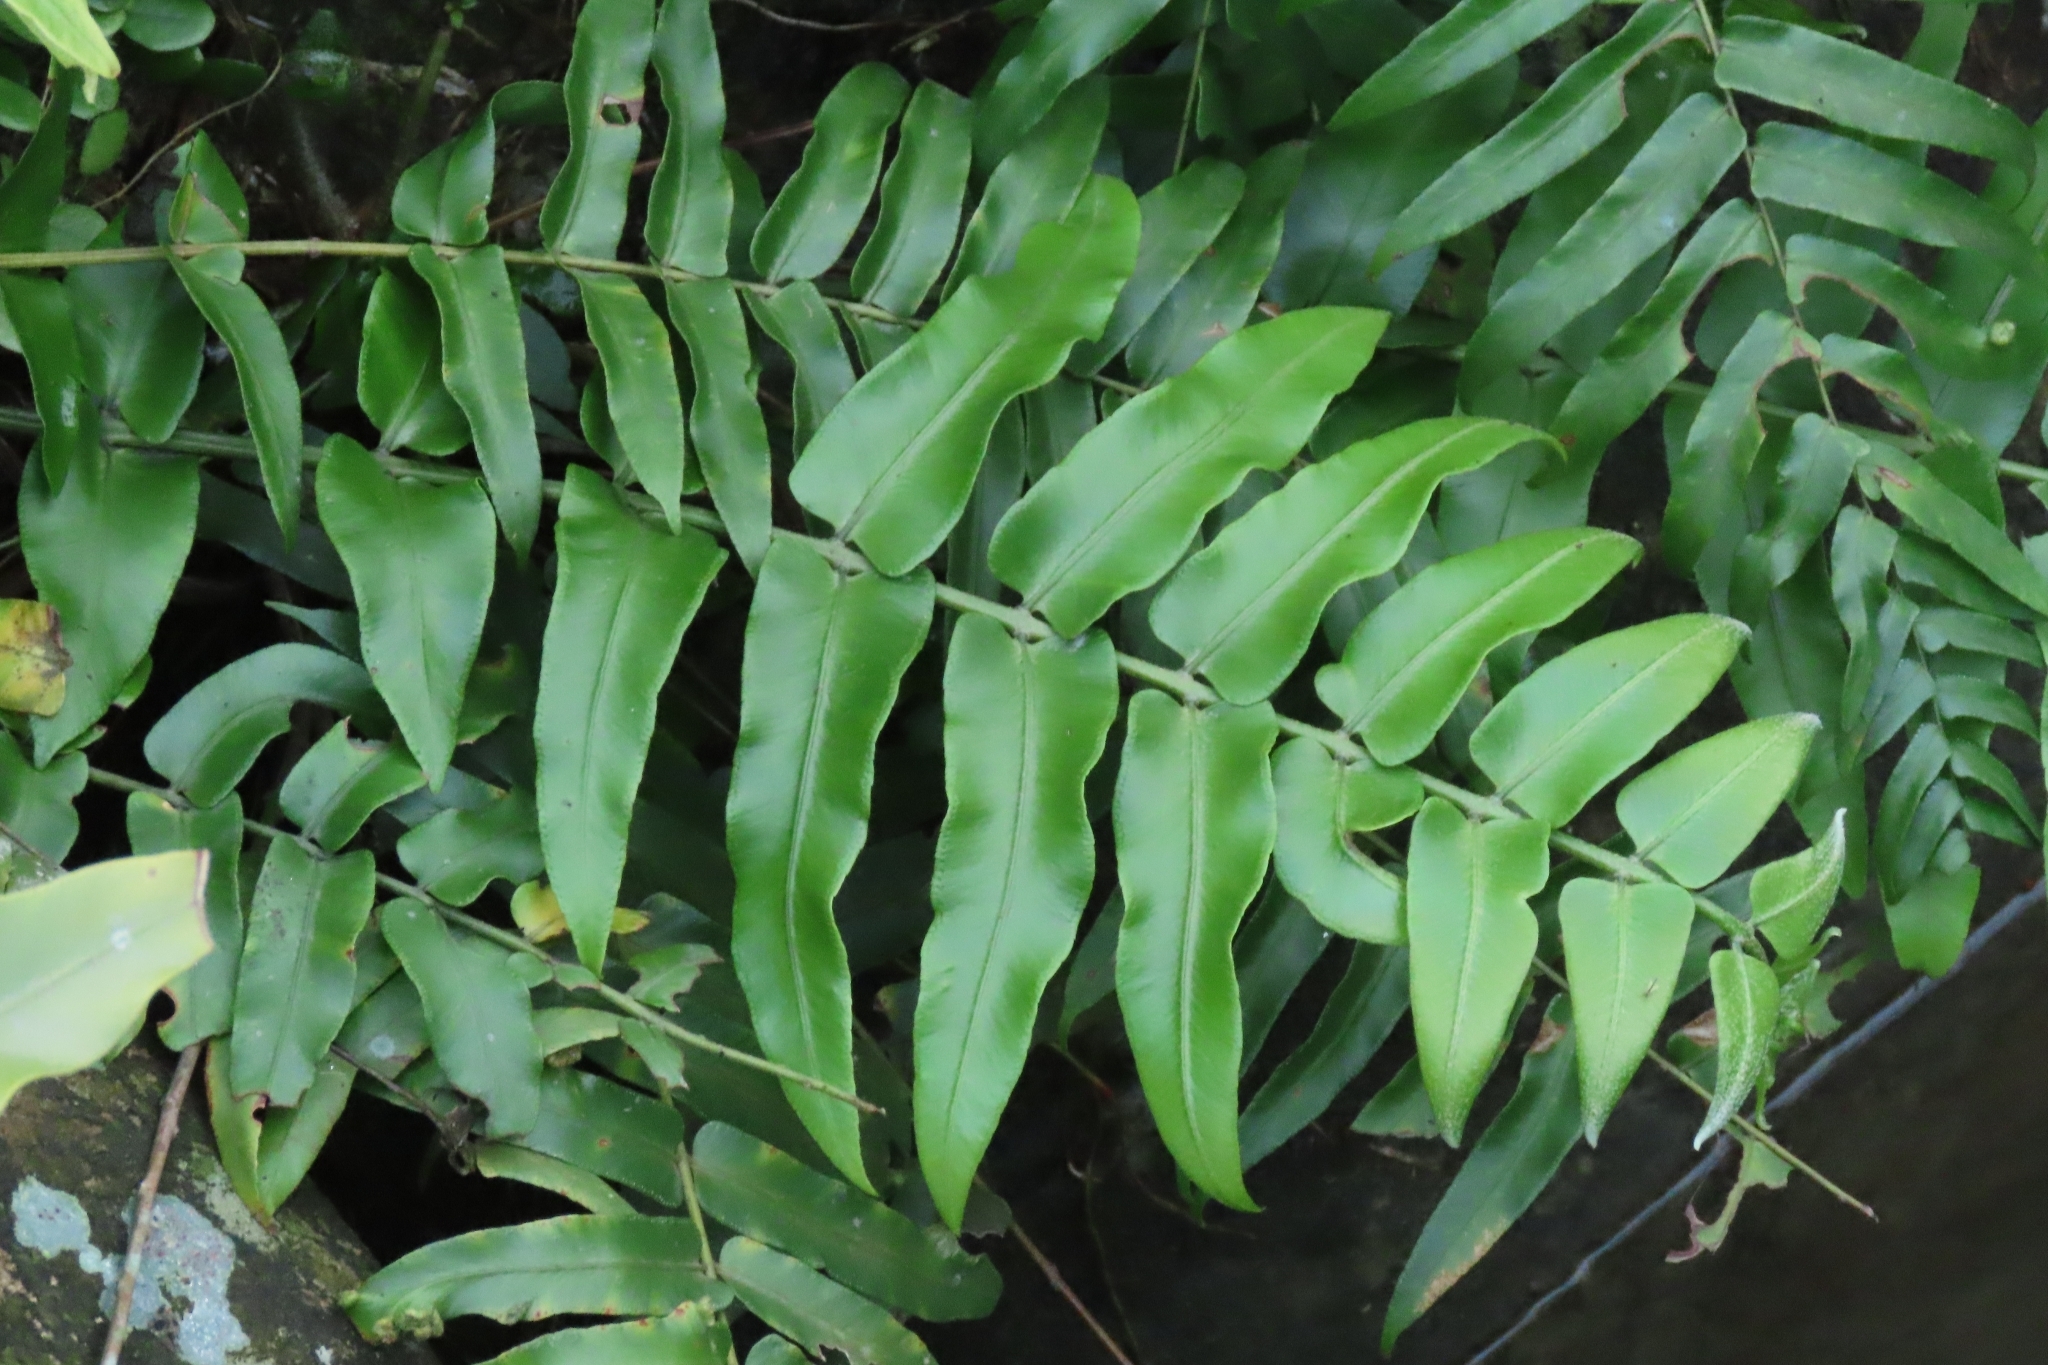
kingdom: Plantae
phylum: Tracheophyta
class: Polypodiopsida
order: Polypodiales
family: Nephrolepidaceae
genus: Nephrolepis
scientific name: Nephrolepis biserrata
